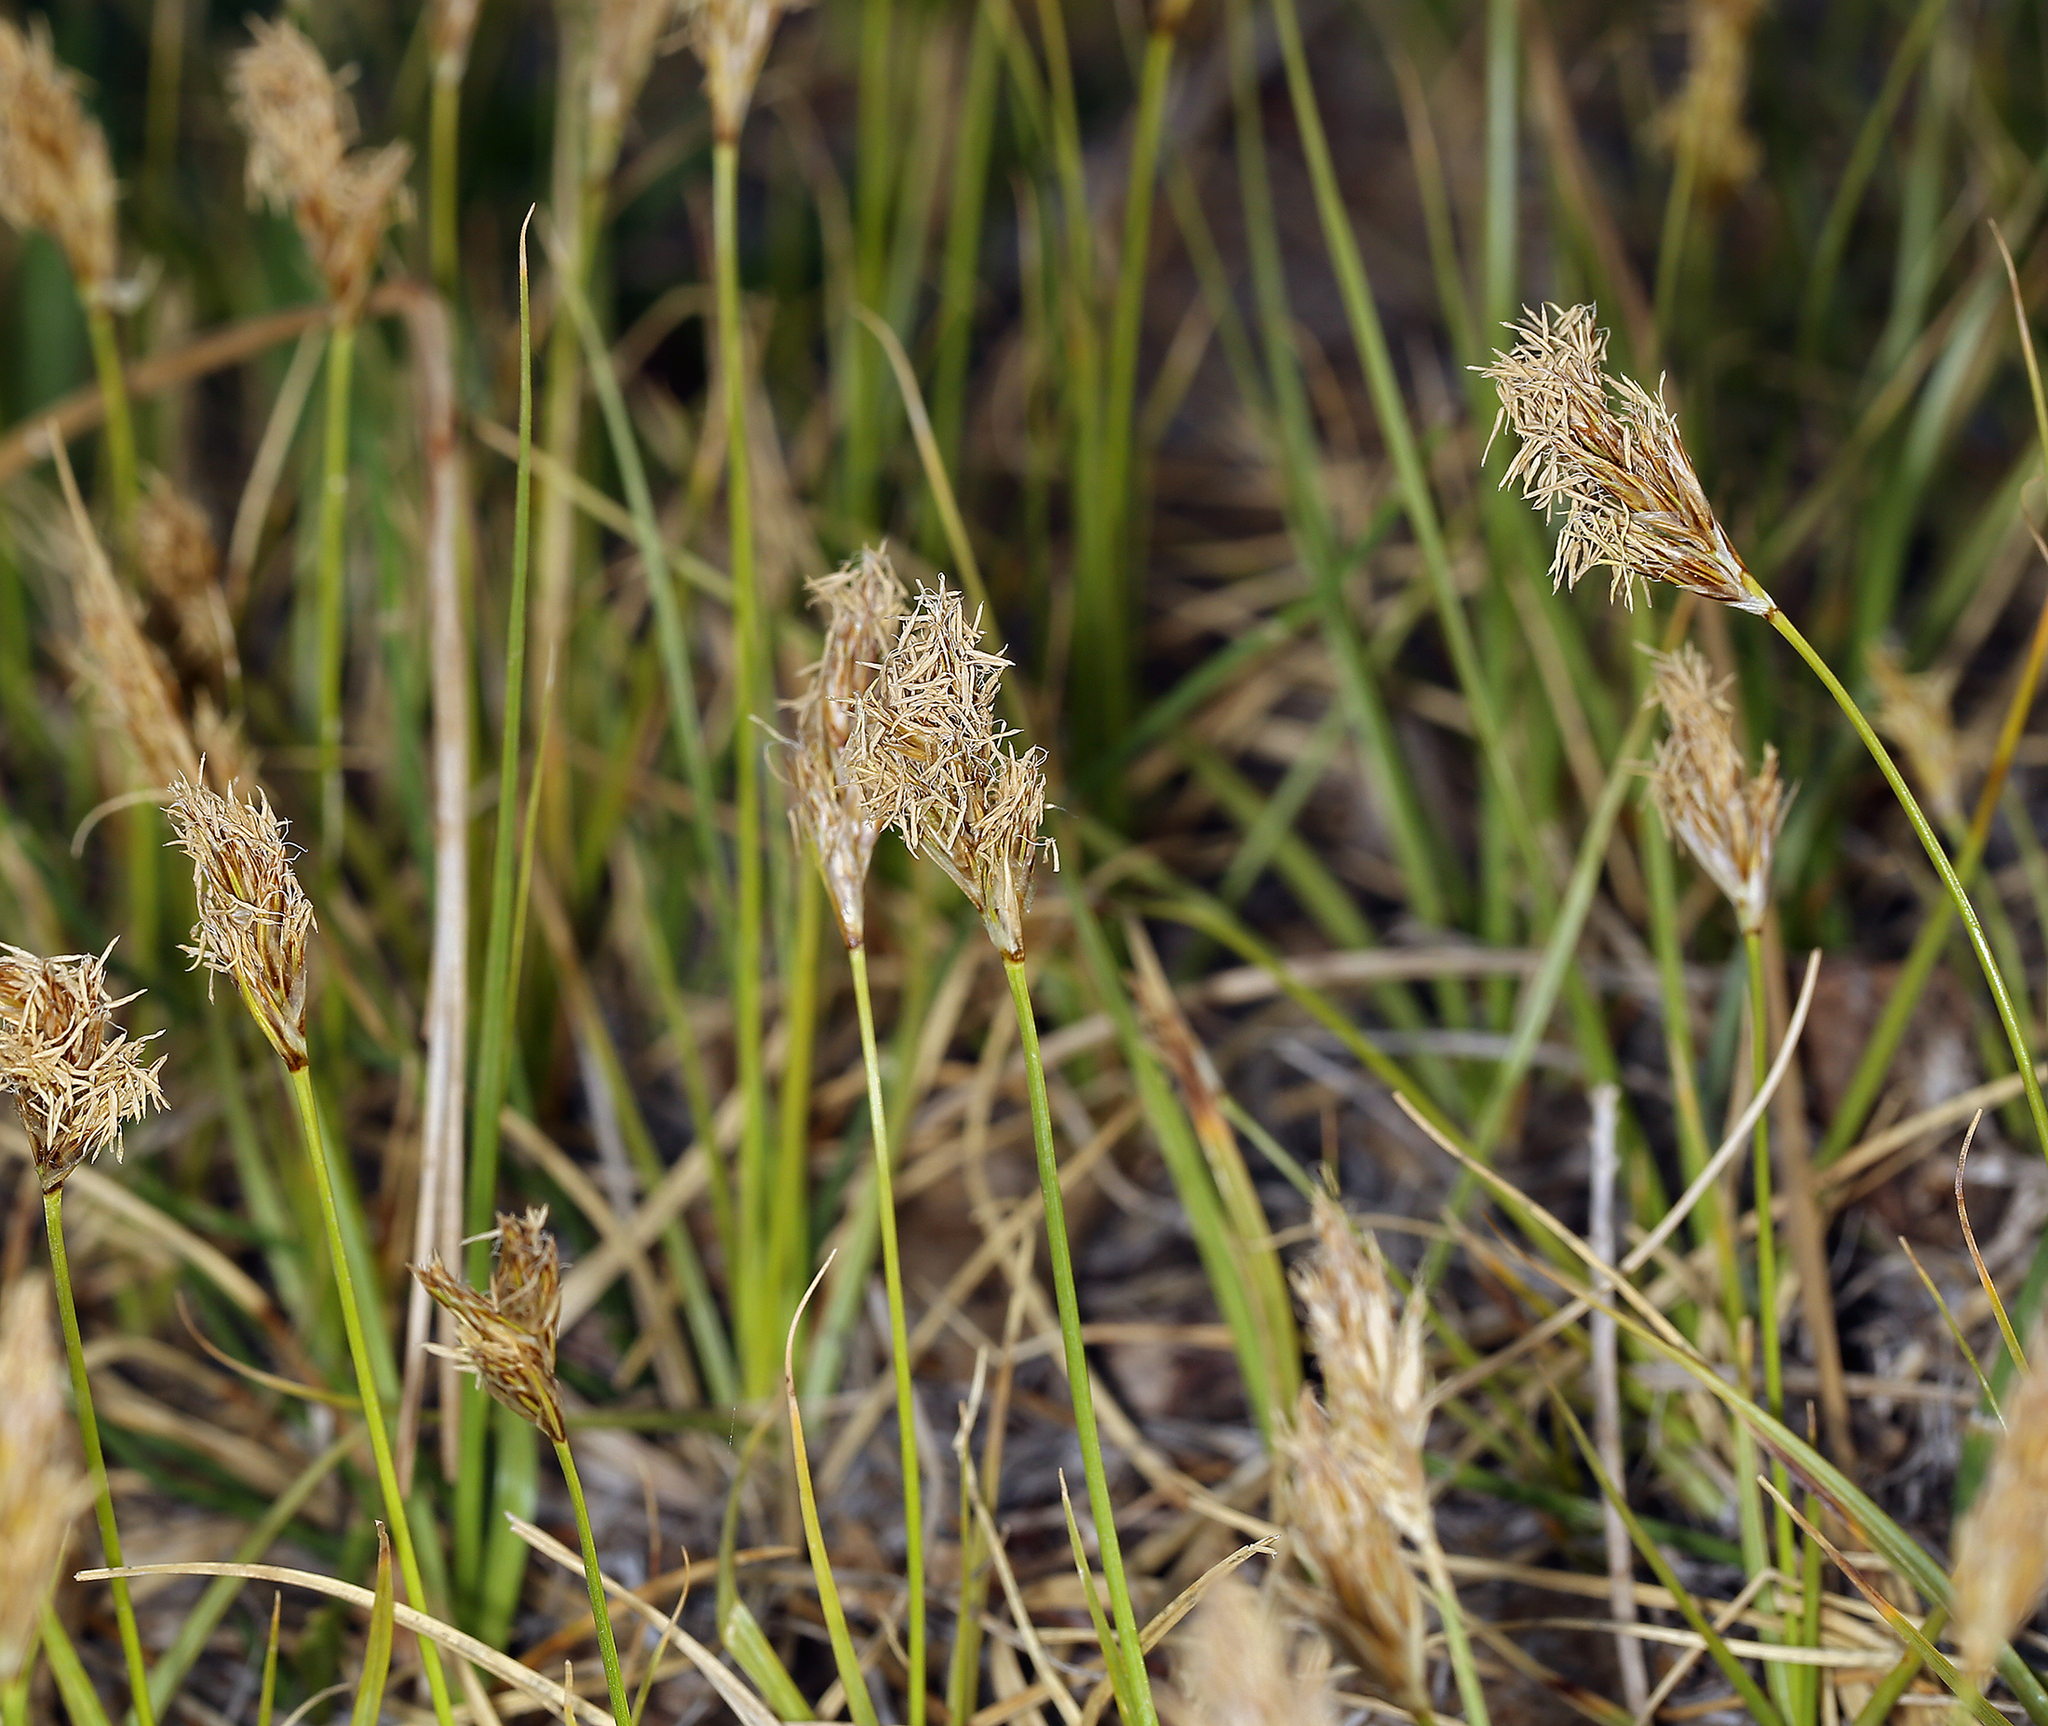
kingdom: Plantae
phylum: Tracheophyta
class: Liliopsida
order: Poales
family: Cyperaceae
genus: Carex
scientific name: Carex douglasii
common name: Douglas' sedge
